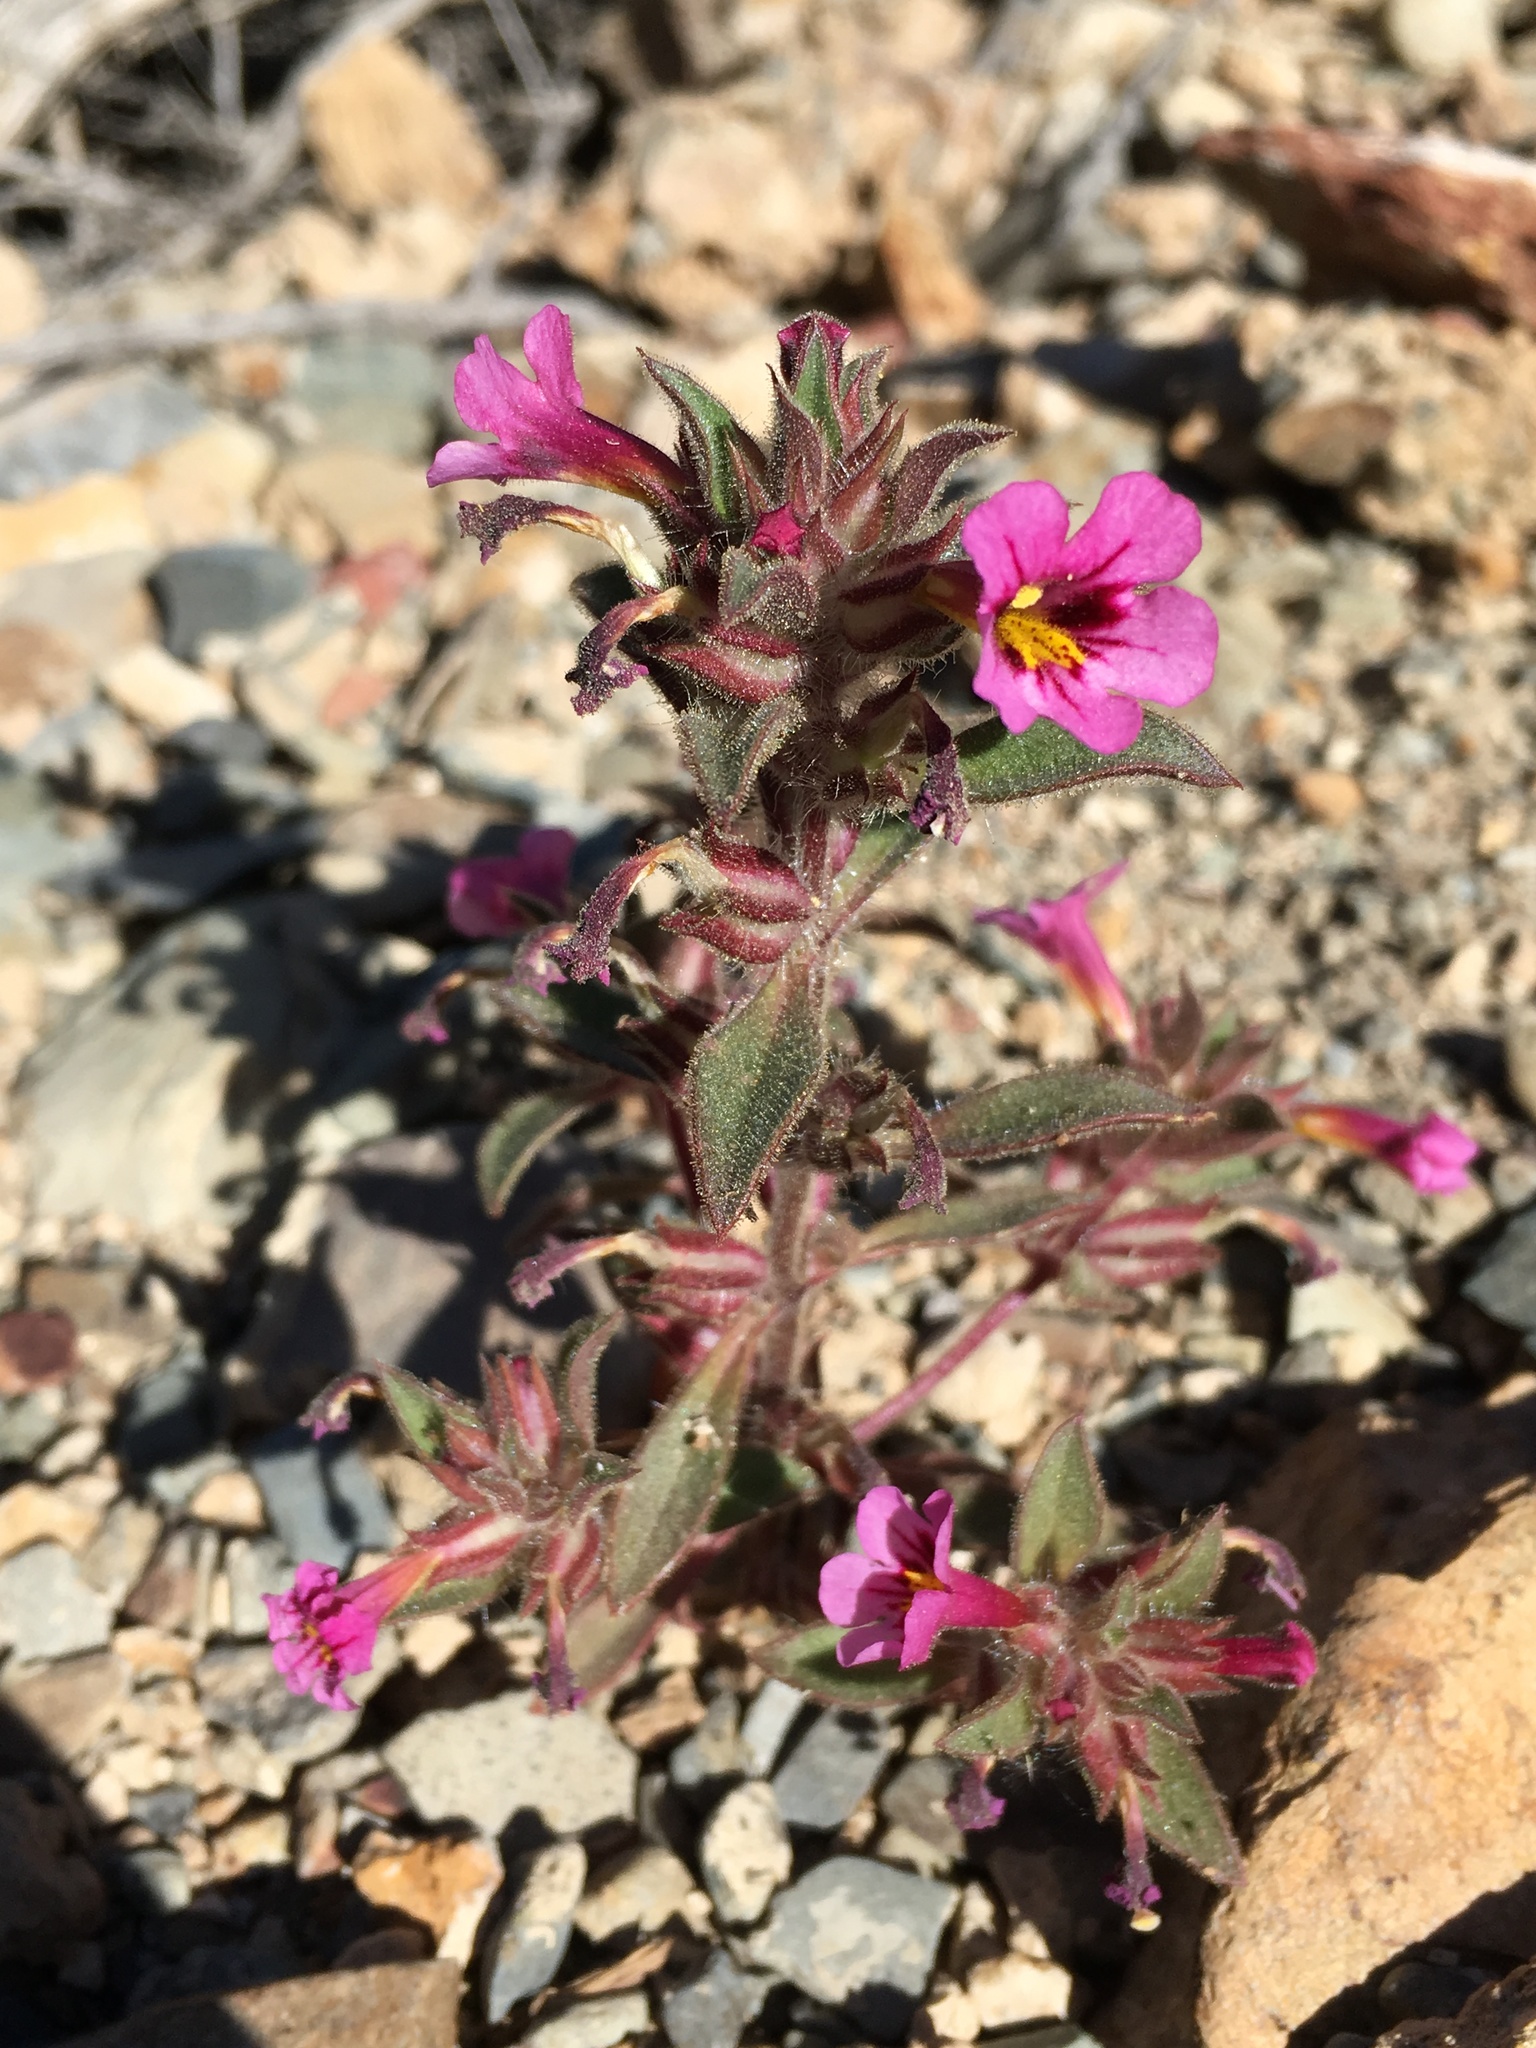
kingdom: Plantae
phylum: Tracheophyta
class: Magnoliopsida
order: Lamiales
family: Phrymaceae
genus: Diplacus
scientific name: Diplacus bigelovii
